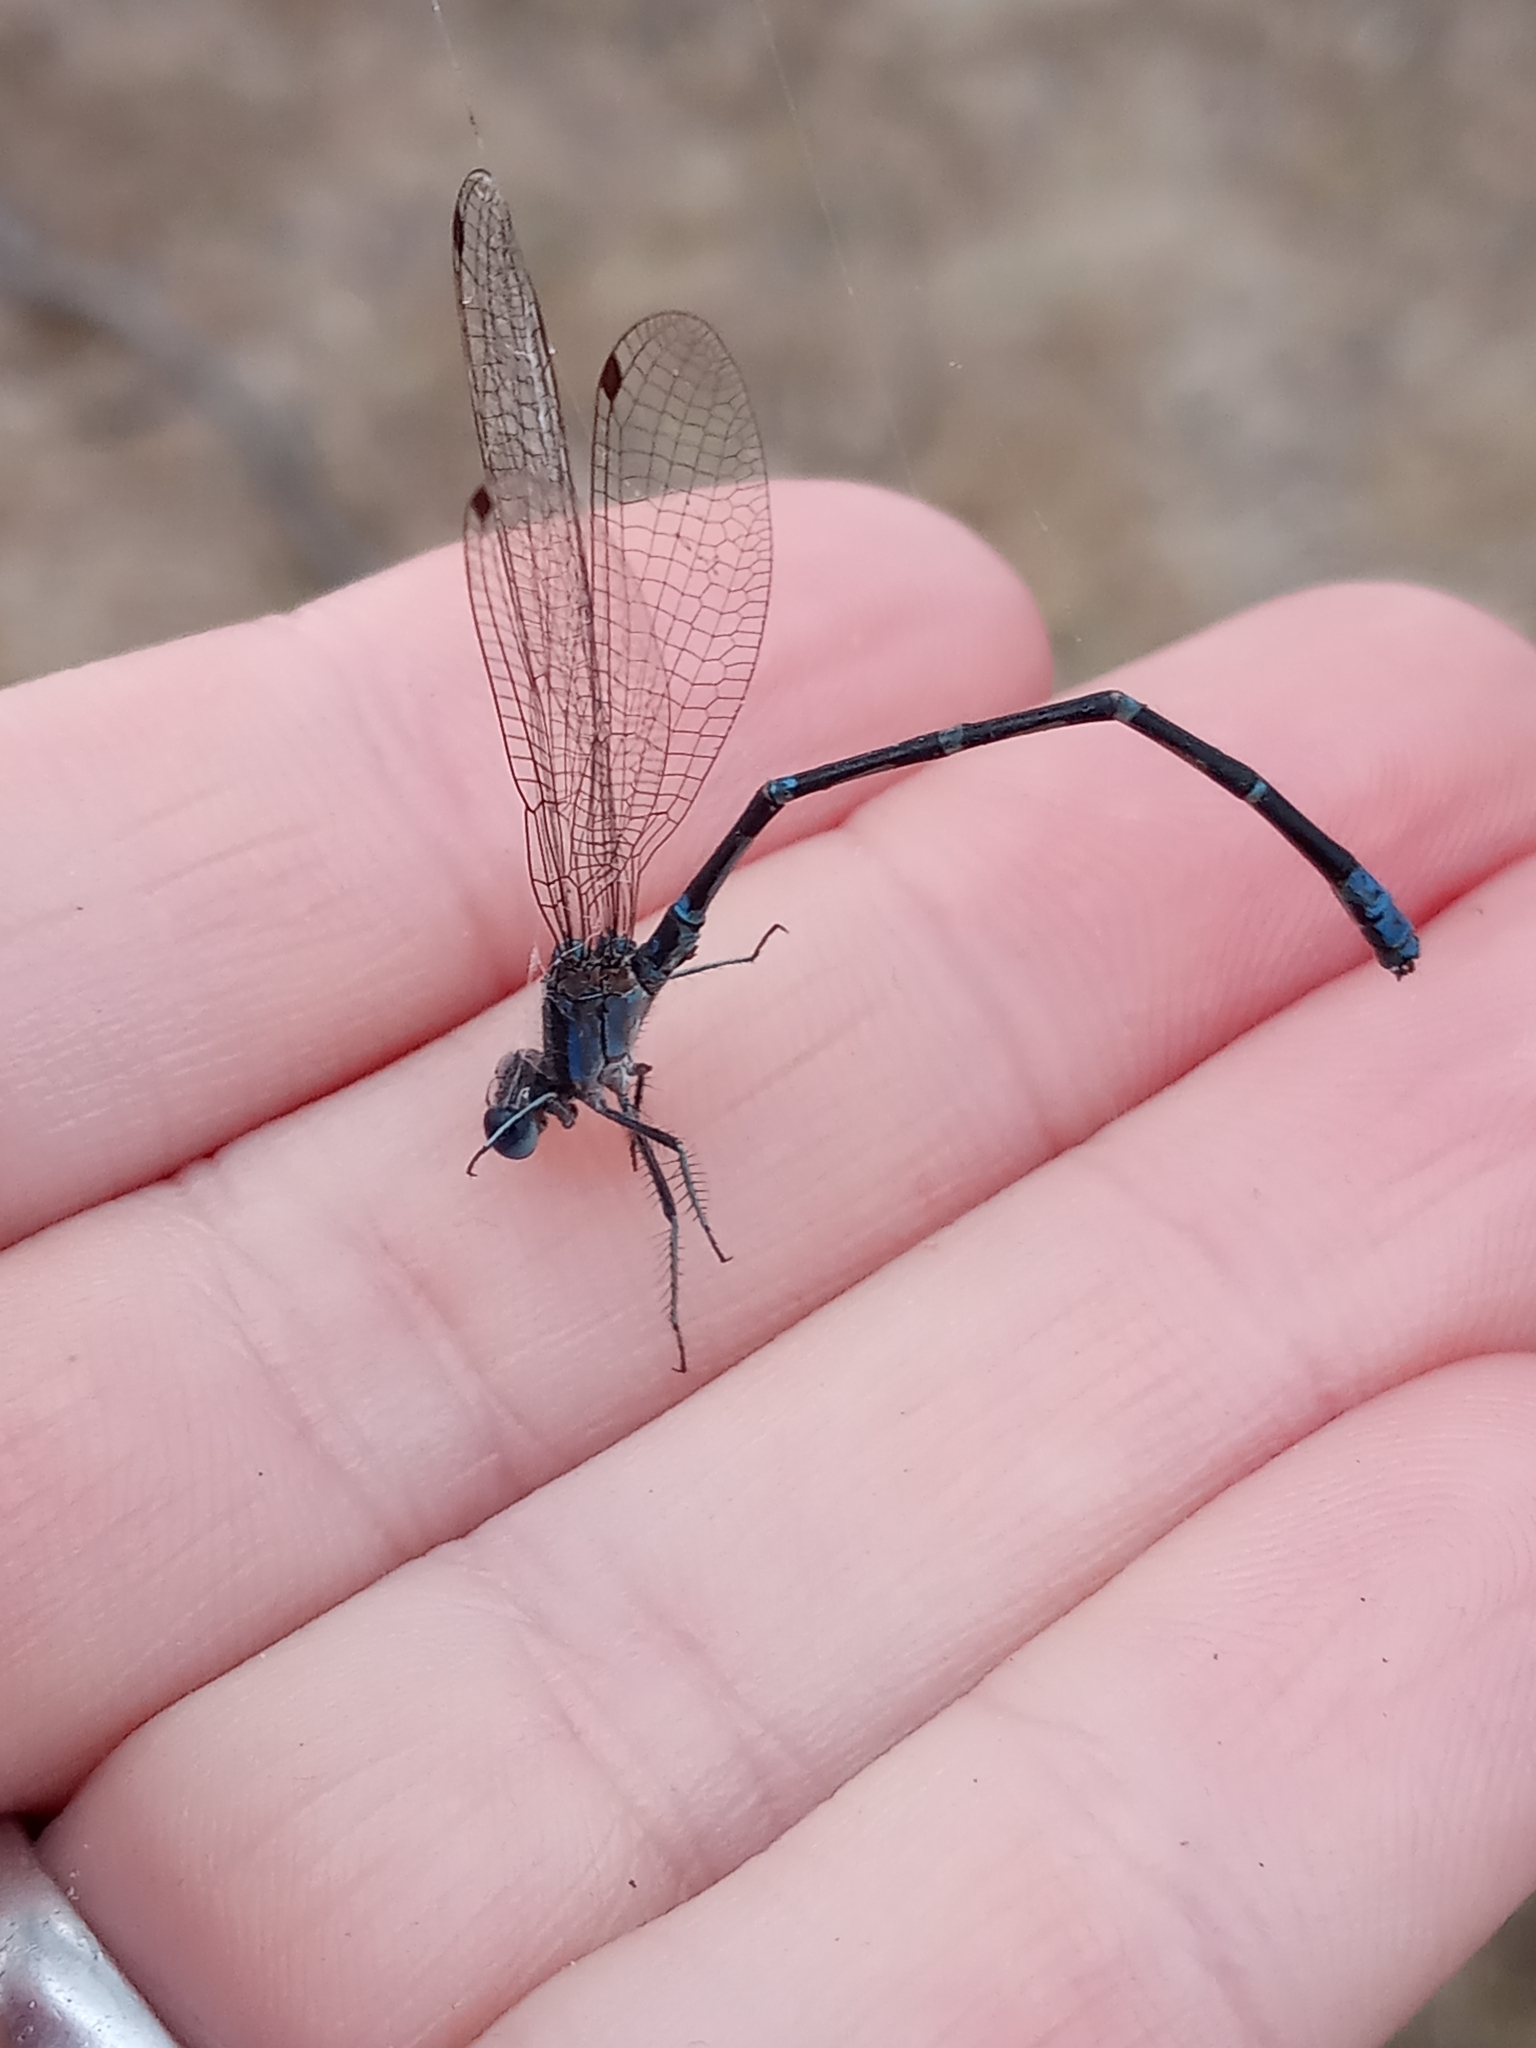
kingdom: Animalia
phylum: Arthropoda
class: Insecta
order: Odonata
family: Coenagrionidae
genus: Argia
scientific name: Argia sedula
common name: Blue-ringed dancer
